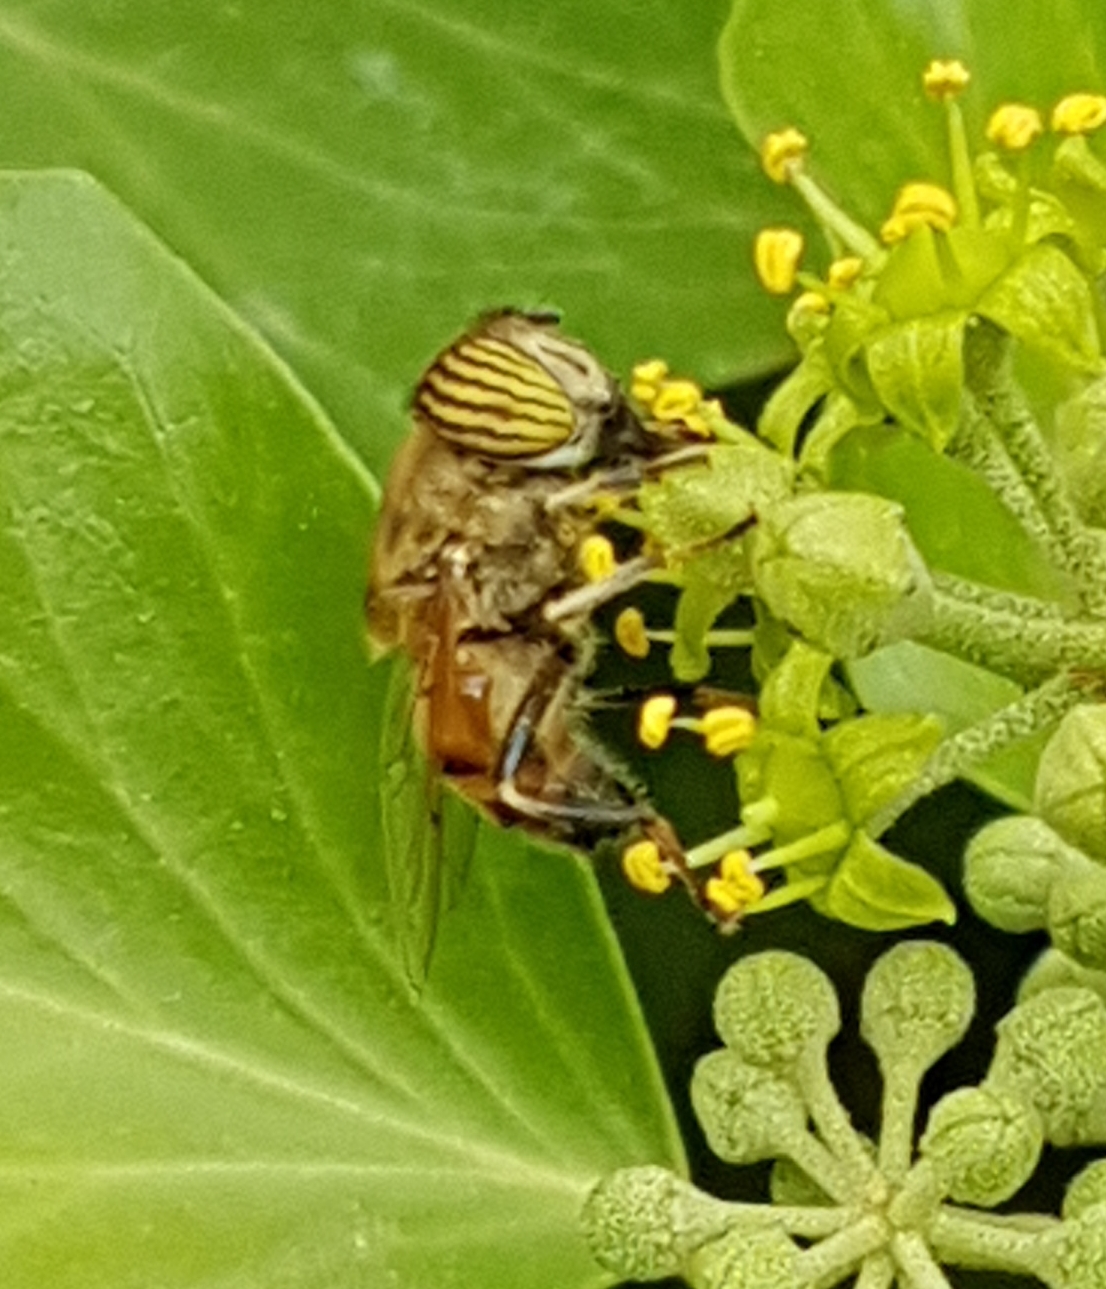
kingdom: Animalia
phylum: Arthropoda
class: Insecta
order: Diptera
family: Syrphidae
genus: Eristalinus
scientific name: Eristalinus taeniops
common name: Syrphid fly
